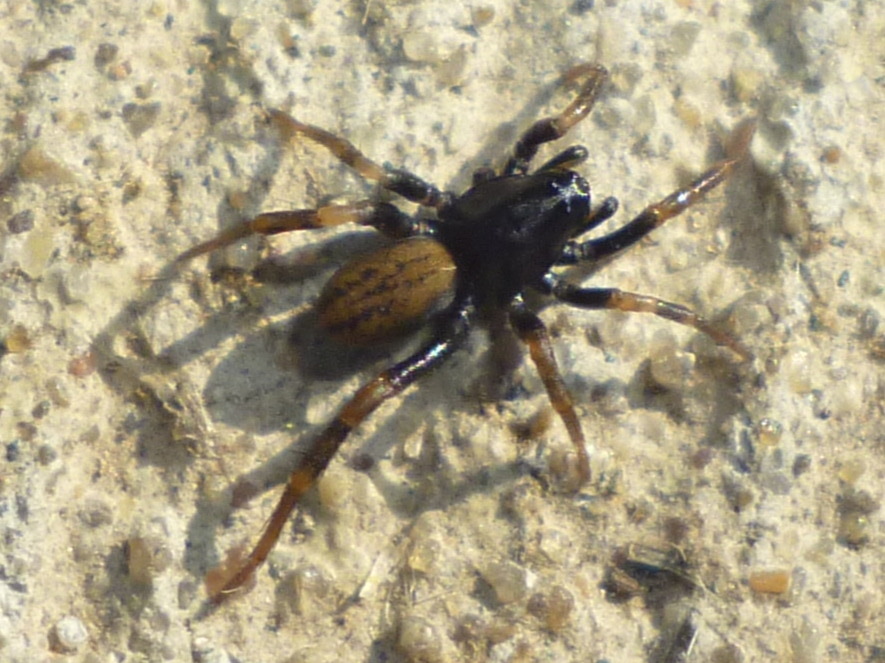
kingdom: Animalia
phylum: Arthropoda
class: Arachnida
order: Araneae
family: Lycosidae
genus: Allocosa
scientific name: Allocosa funerea
